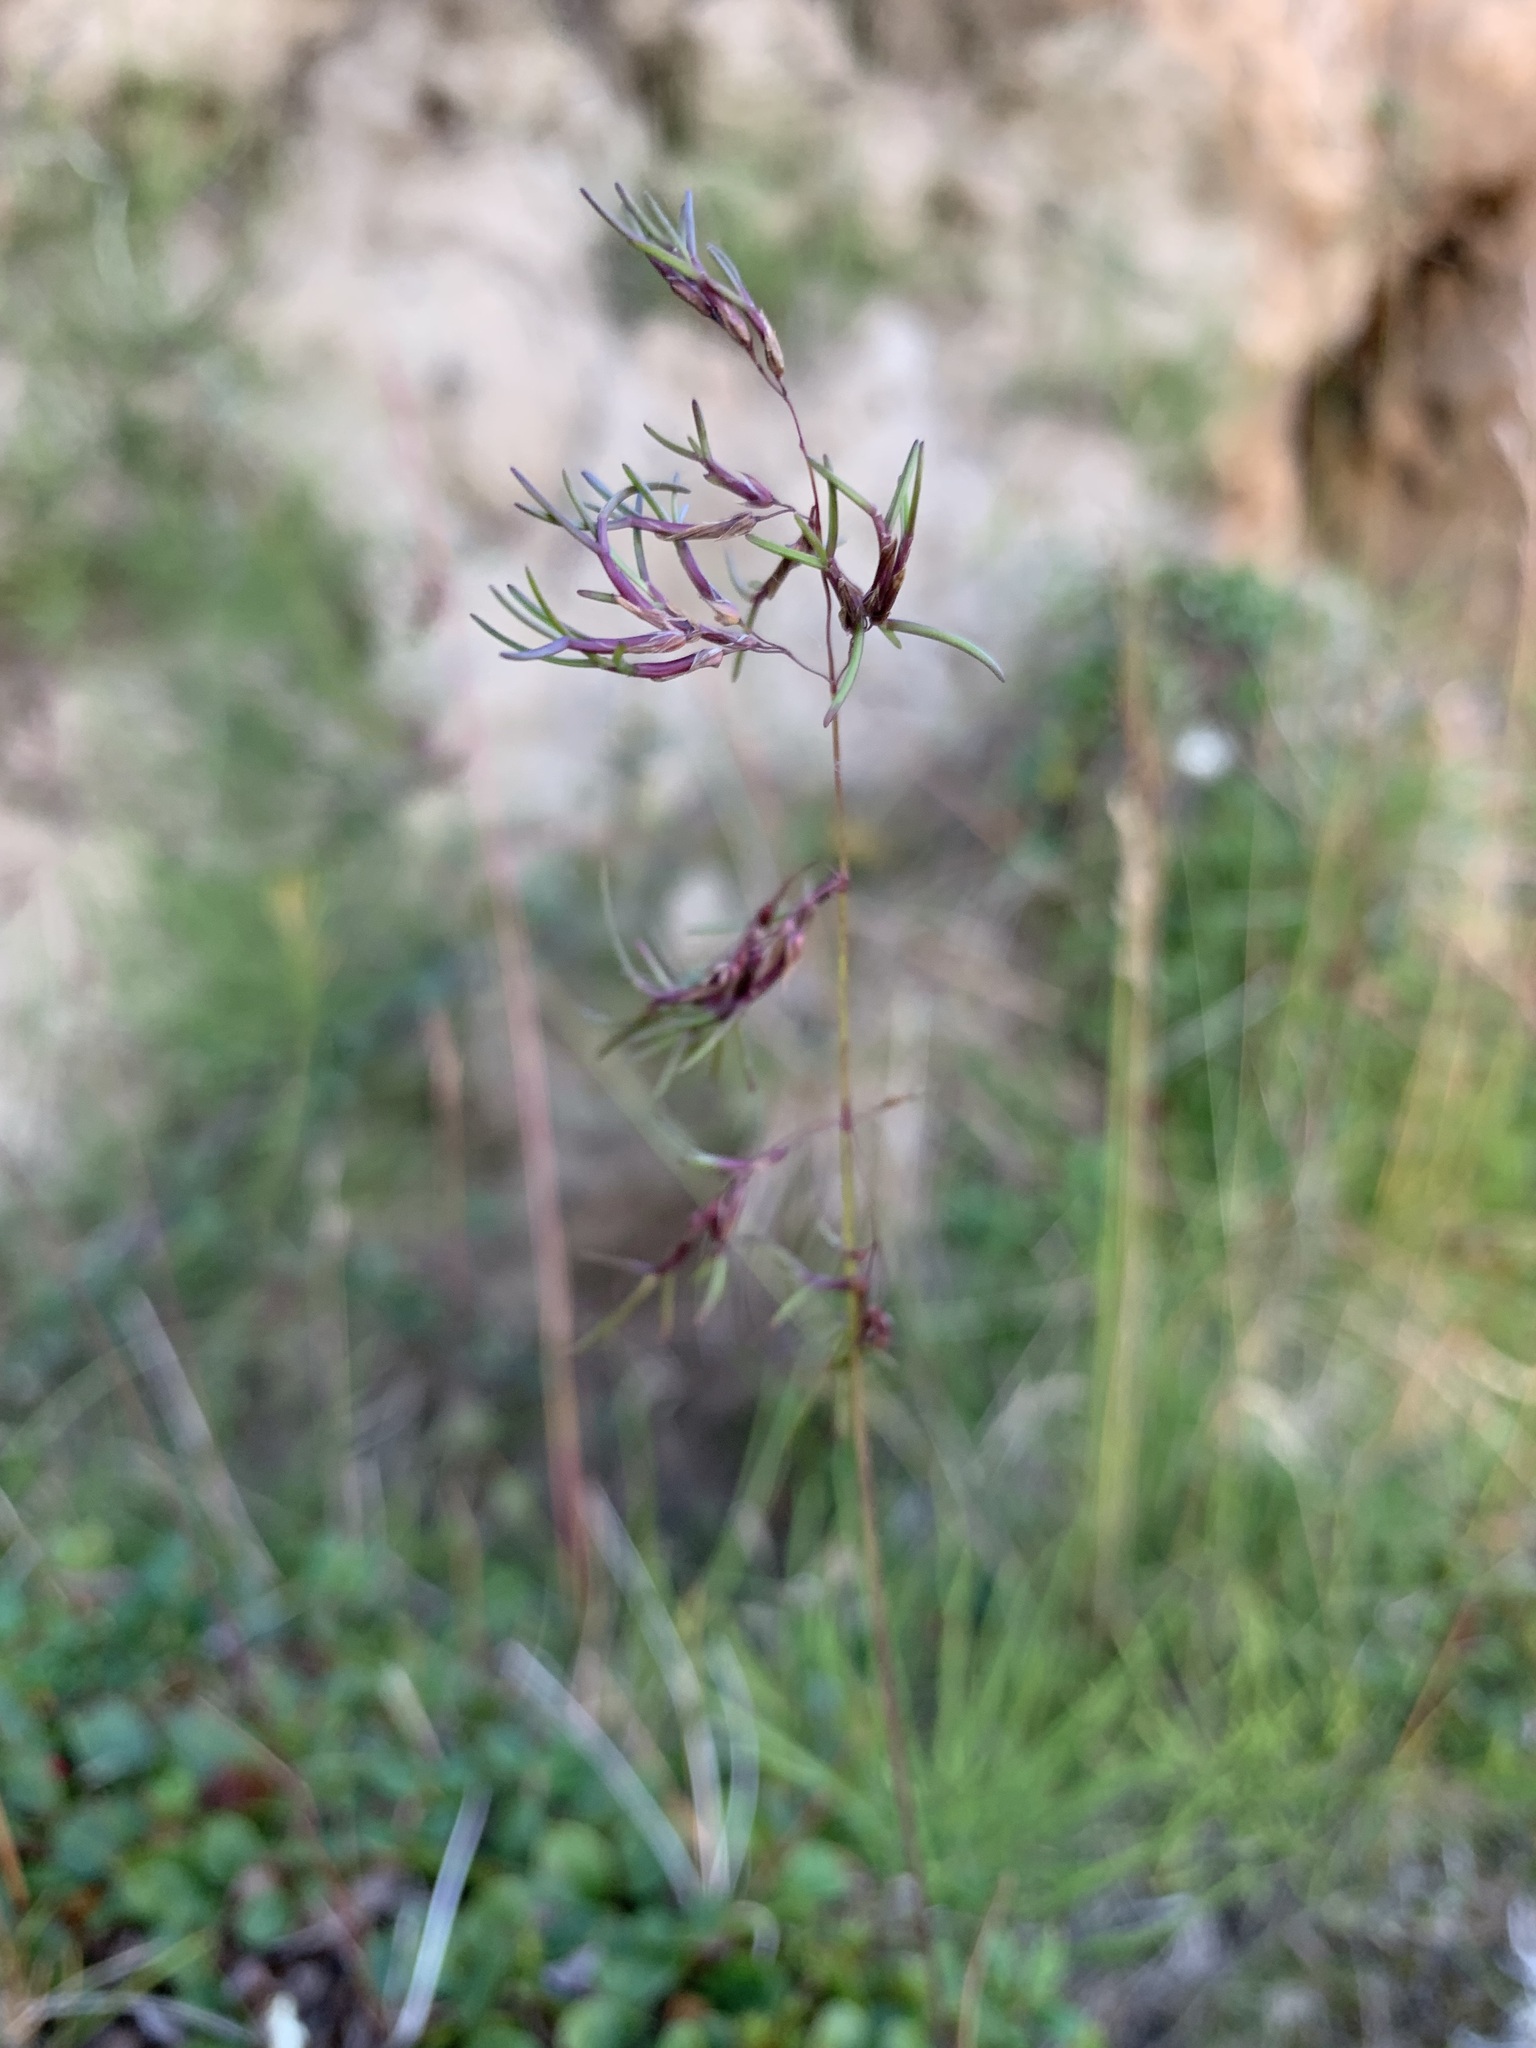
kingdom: Plantae
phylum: Tracheophyta
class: Liliopsida
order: Poales
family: Poaceae
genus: Poa
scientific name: Poa alpigena
